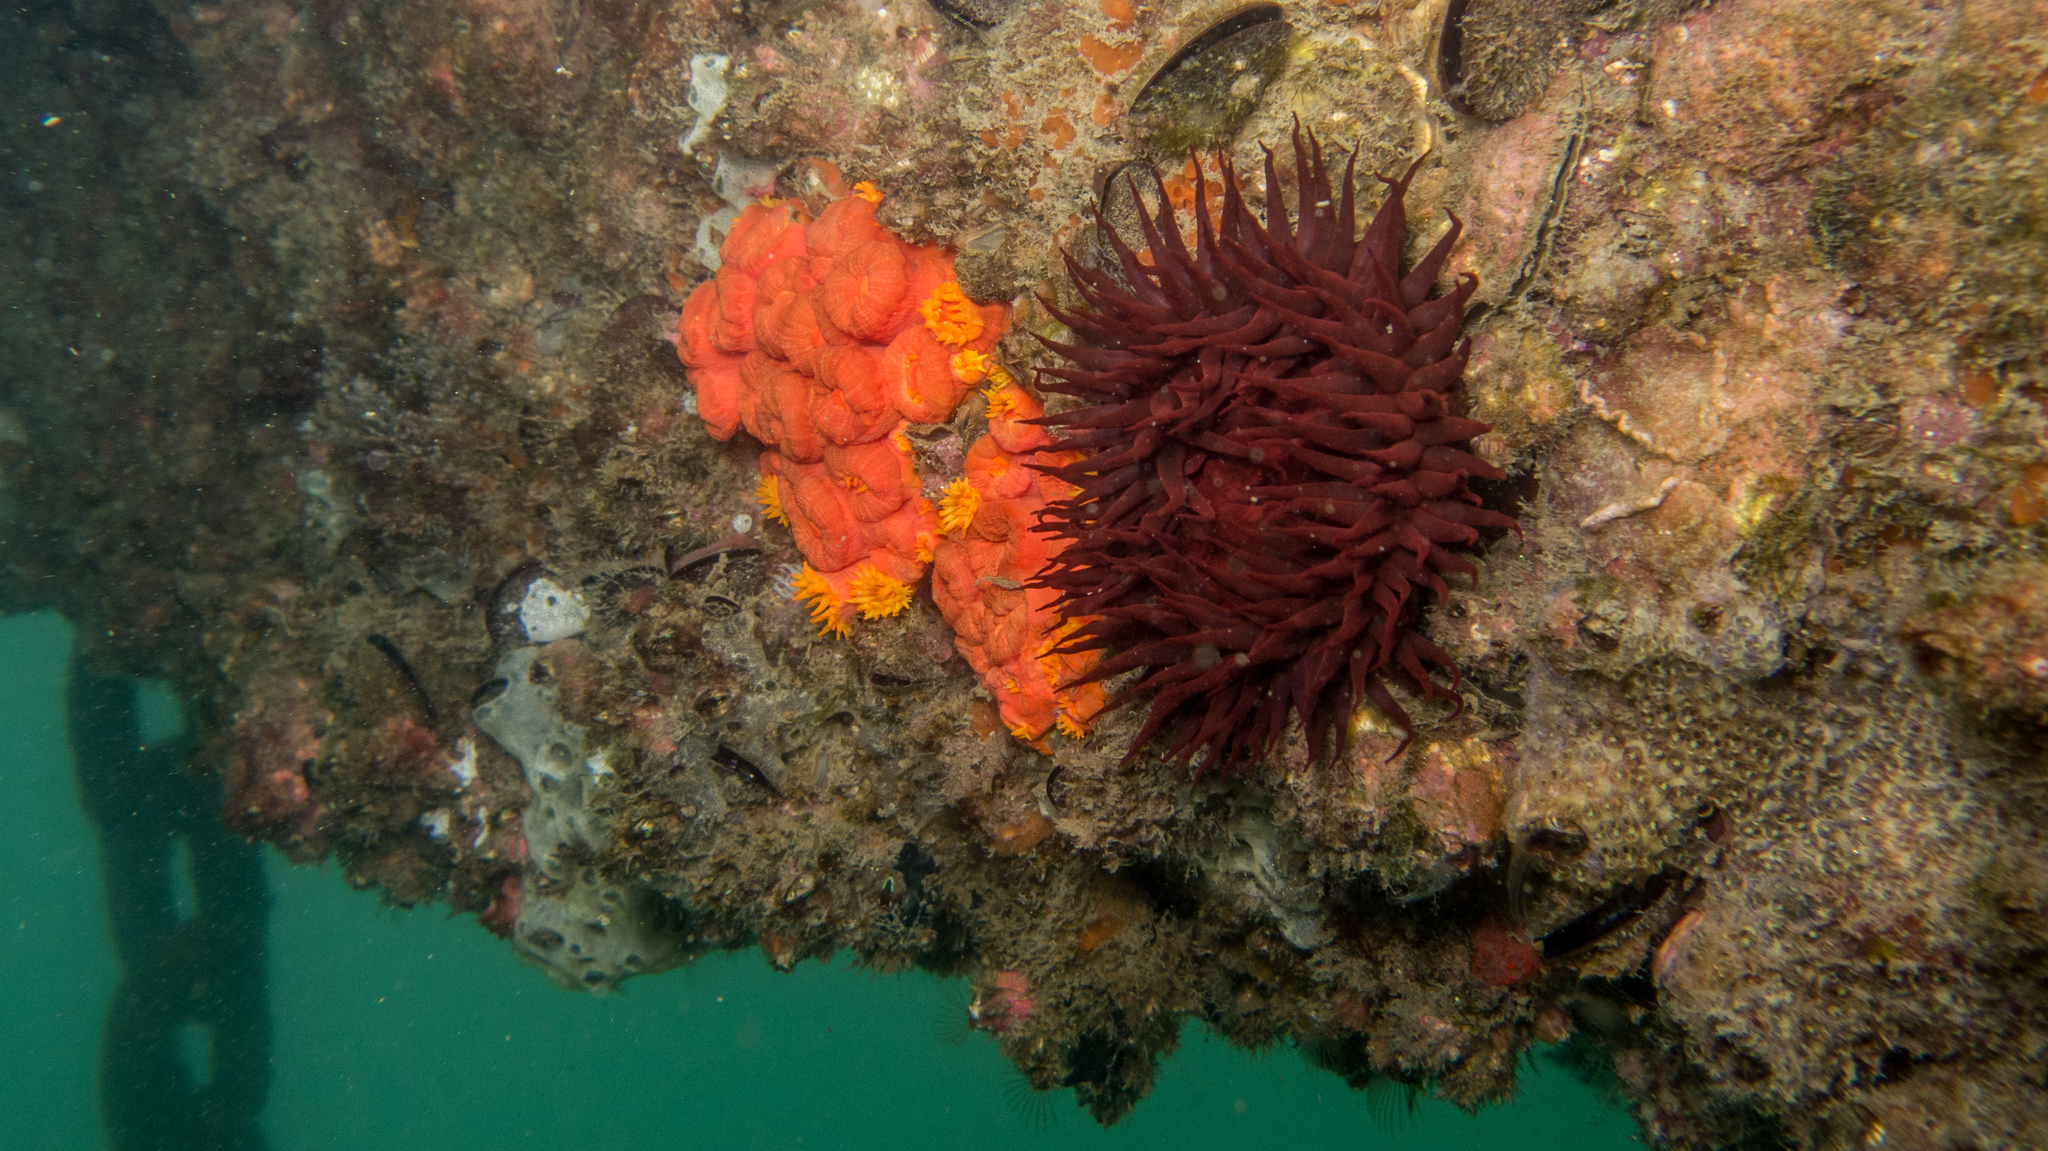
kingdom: Animalia
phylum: Cnidaria
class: Anthozoa
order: Actiniaria
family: Actiniidae
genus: Bunodosoma
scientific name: Bunodosoma caissarum
